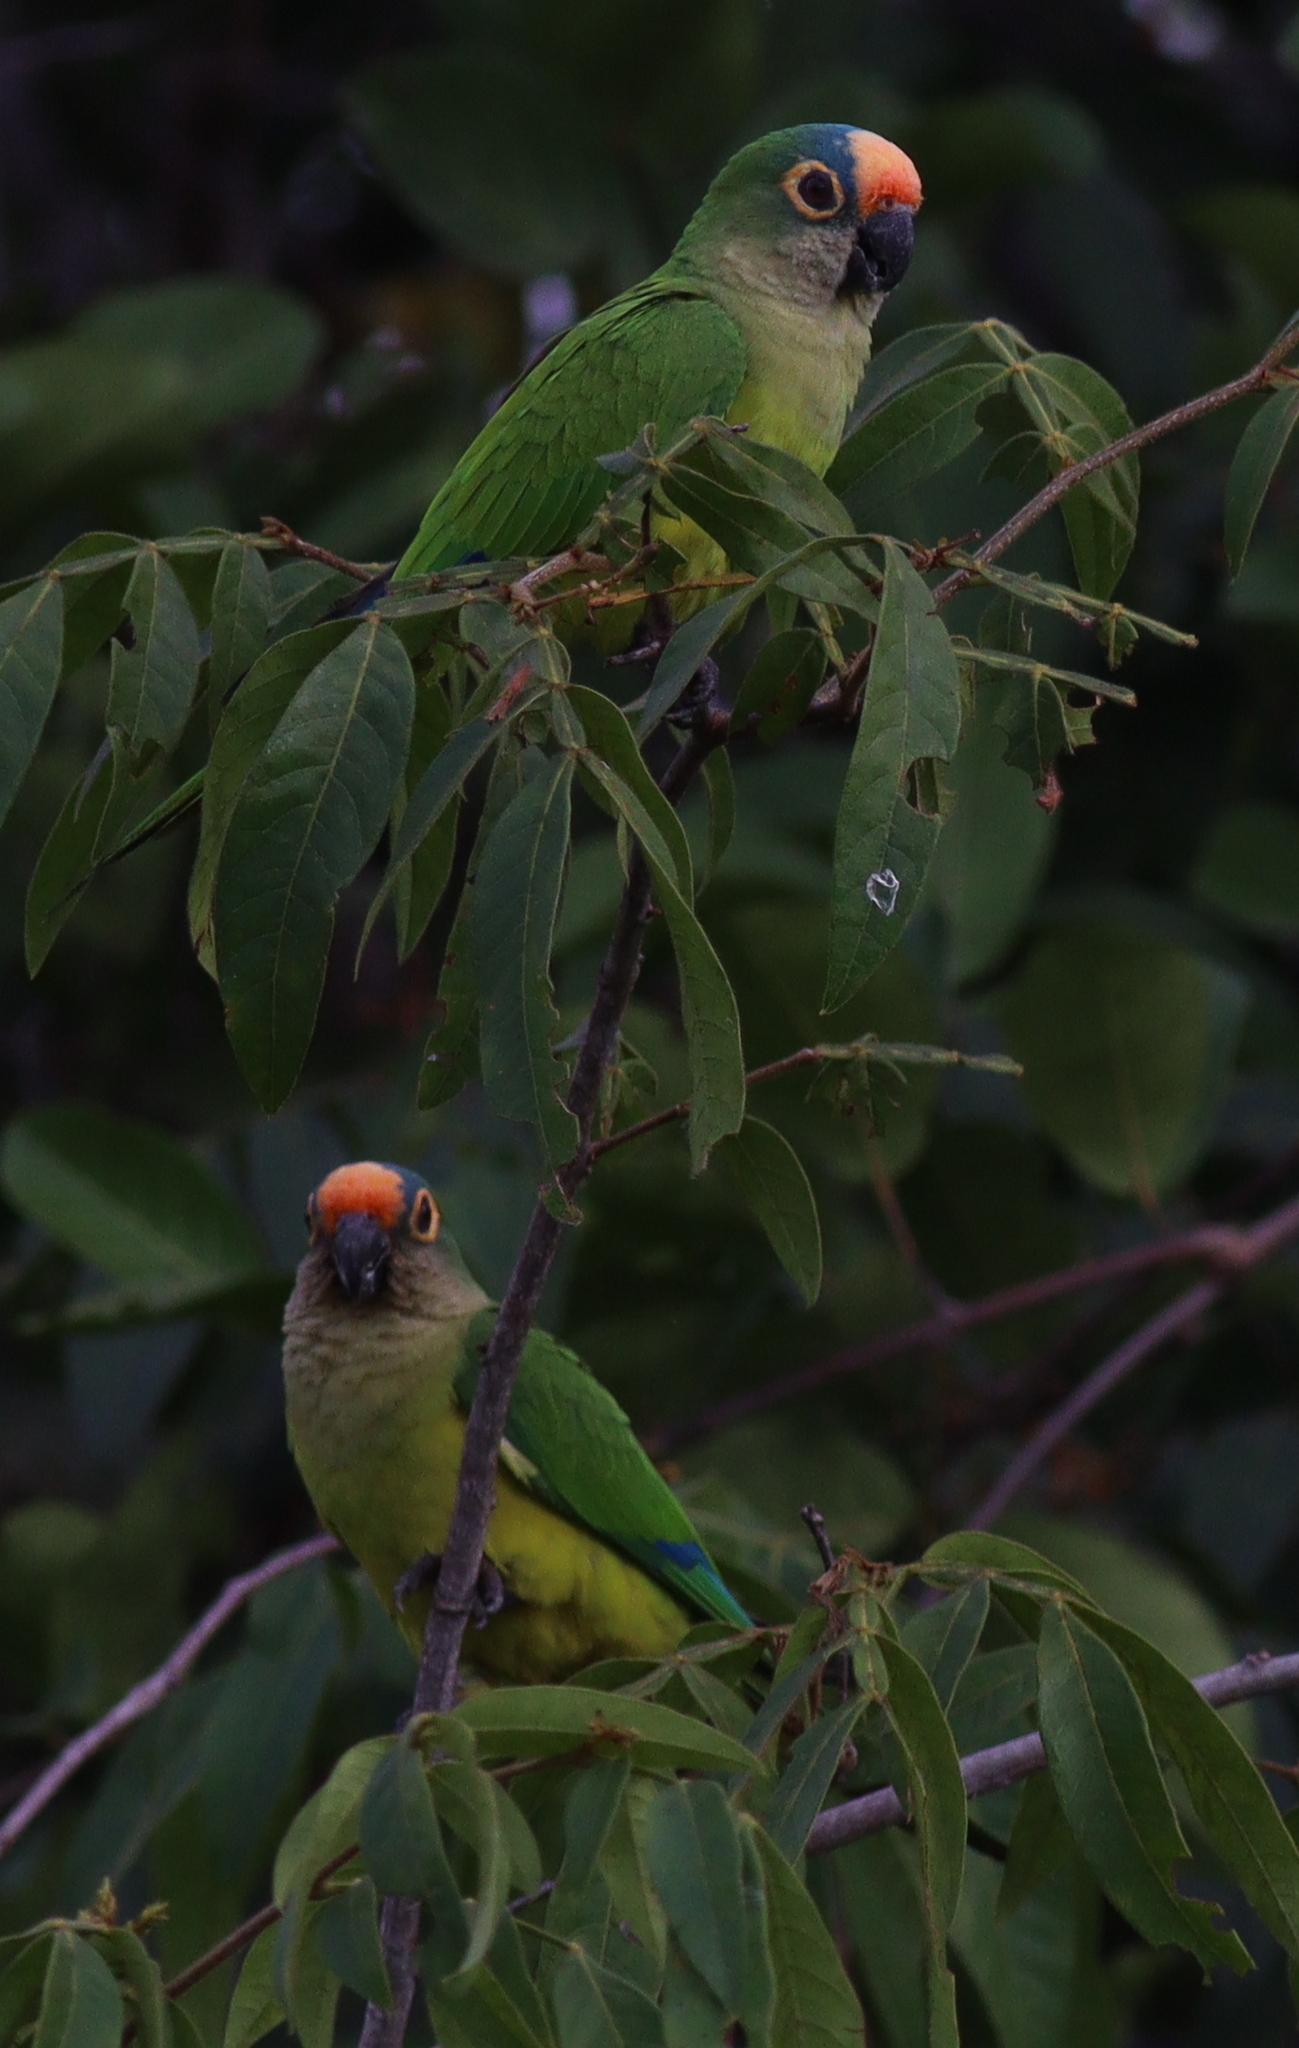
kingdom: Animalia
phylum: Chordata
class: Aves
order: Psittaciformes
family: Psittacidae
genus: Aratinga
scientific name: Aratinga aurea
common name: Peach-fronted parakeet
